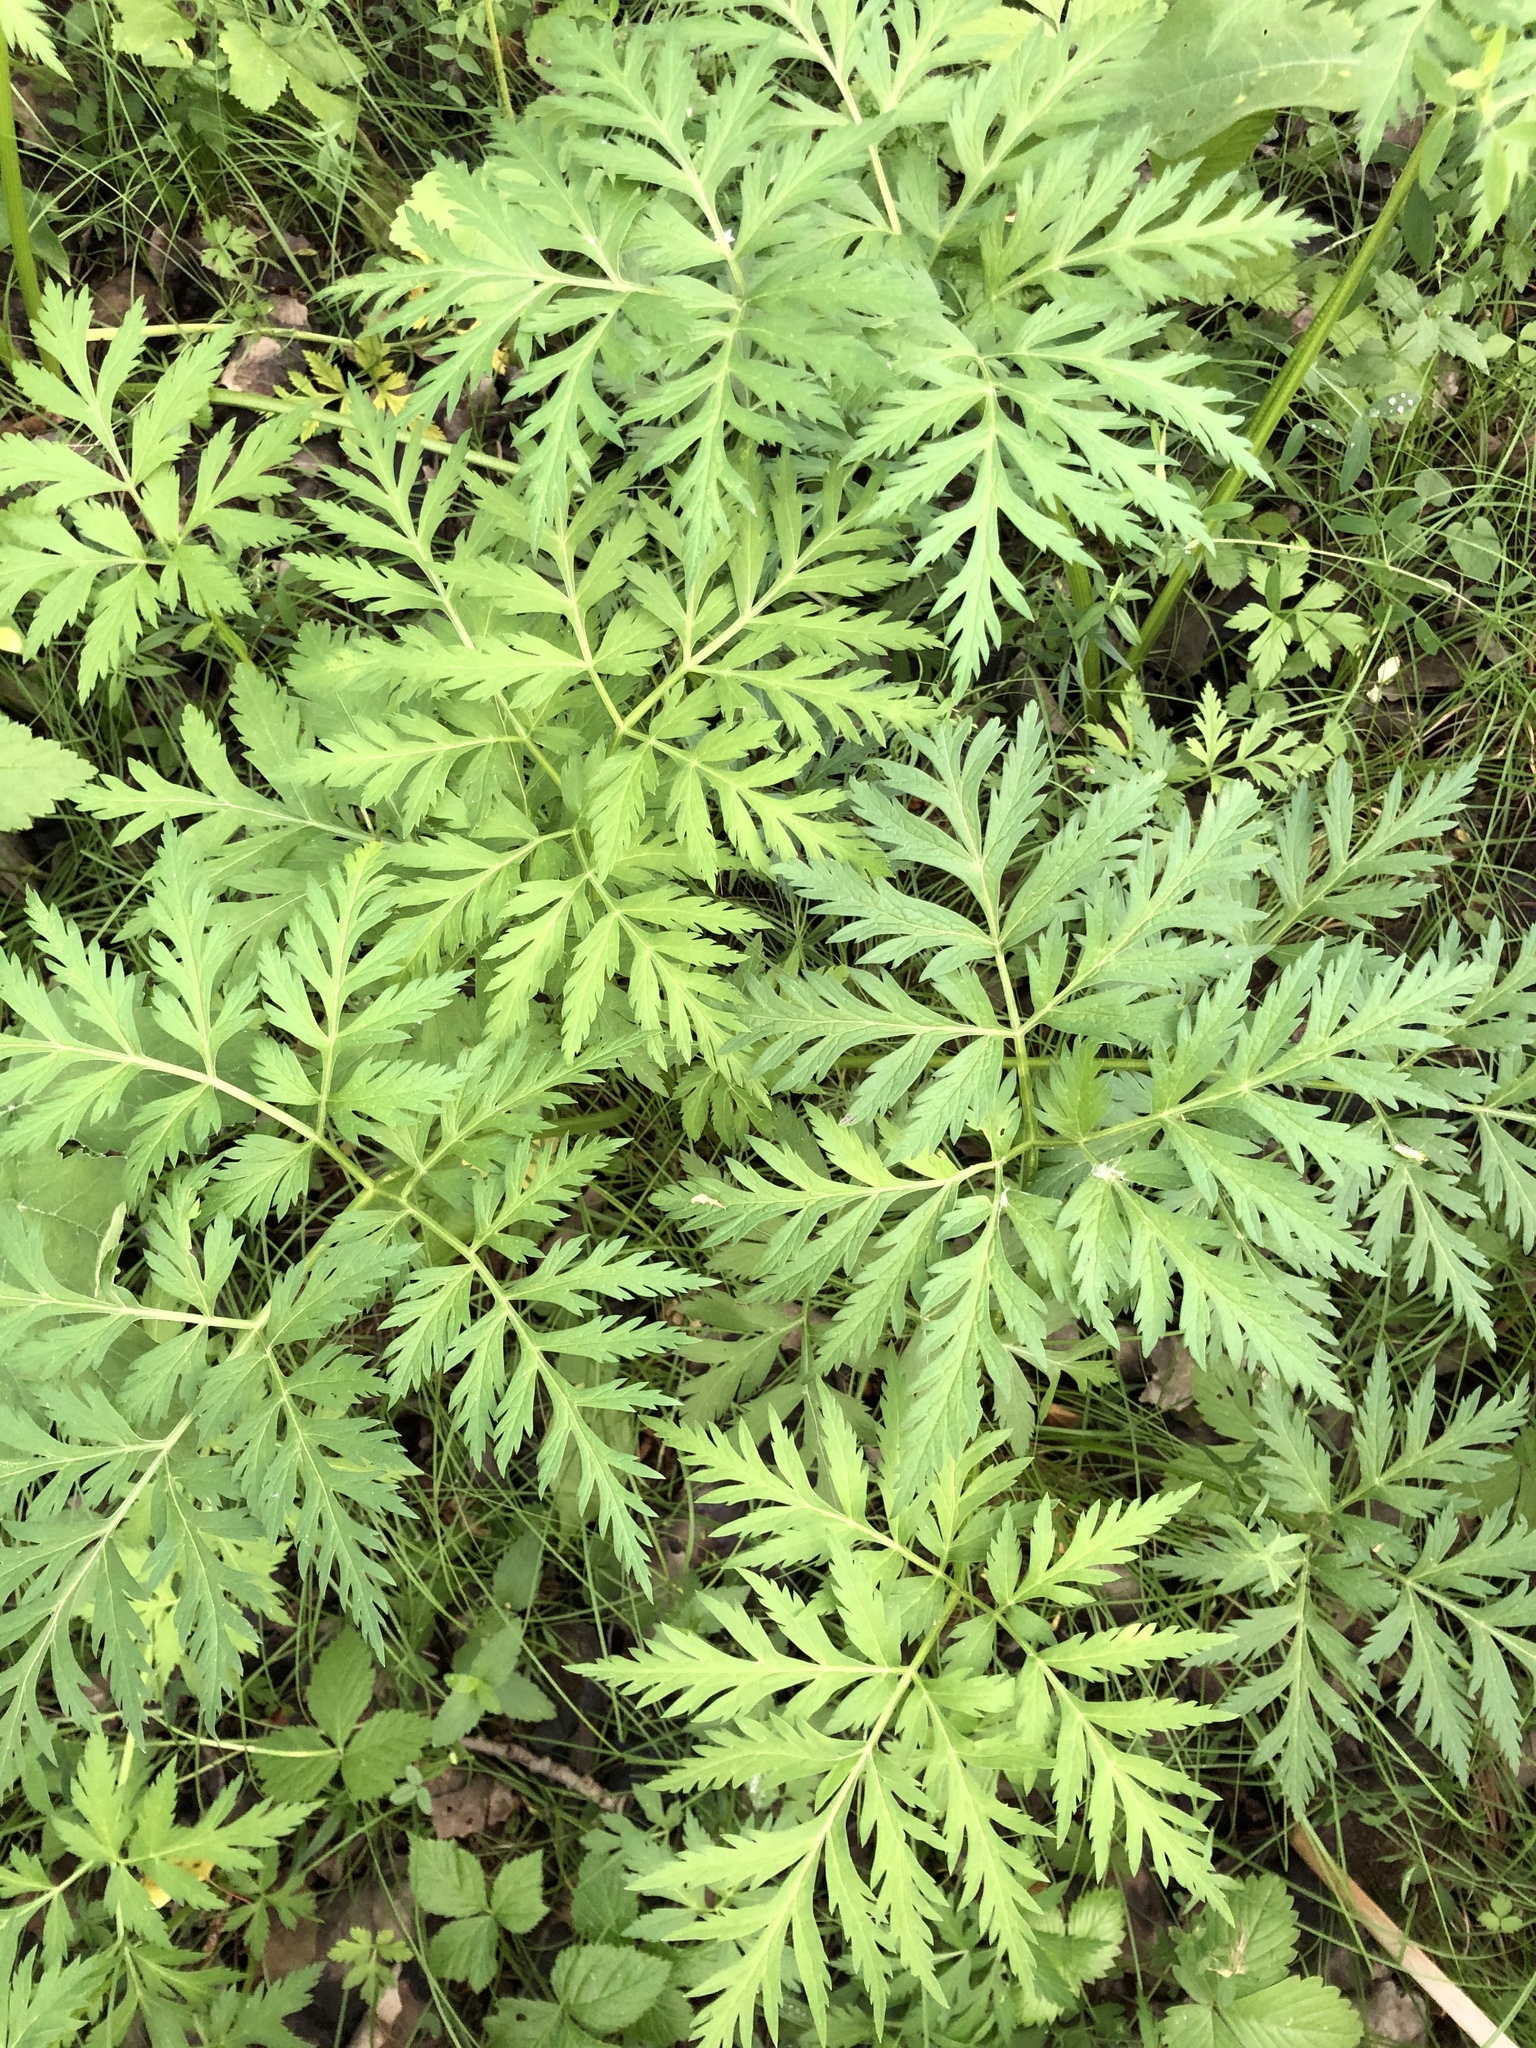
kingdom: Plantae
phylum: Tracheophyta
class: Magnoliopsida
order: Apiales
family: Apiaceae
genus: Pleurospermum
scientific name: Pleurospermum uralense
